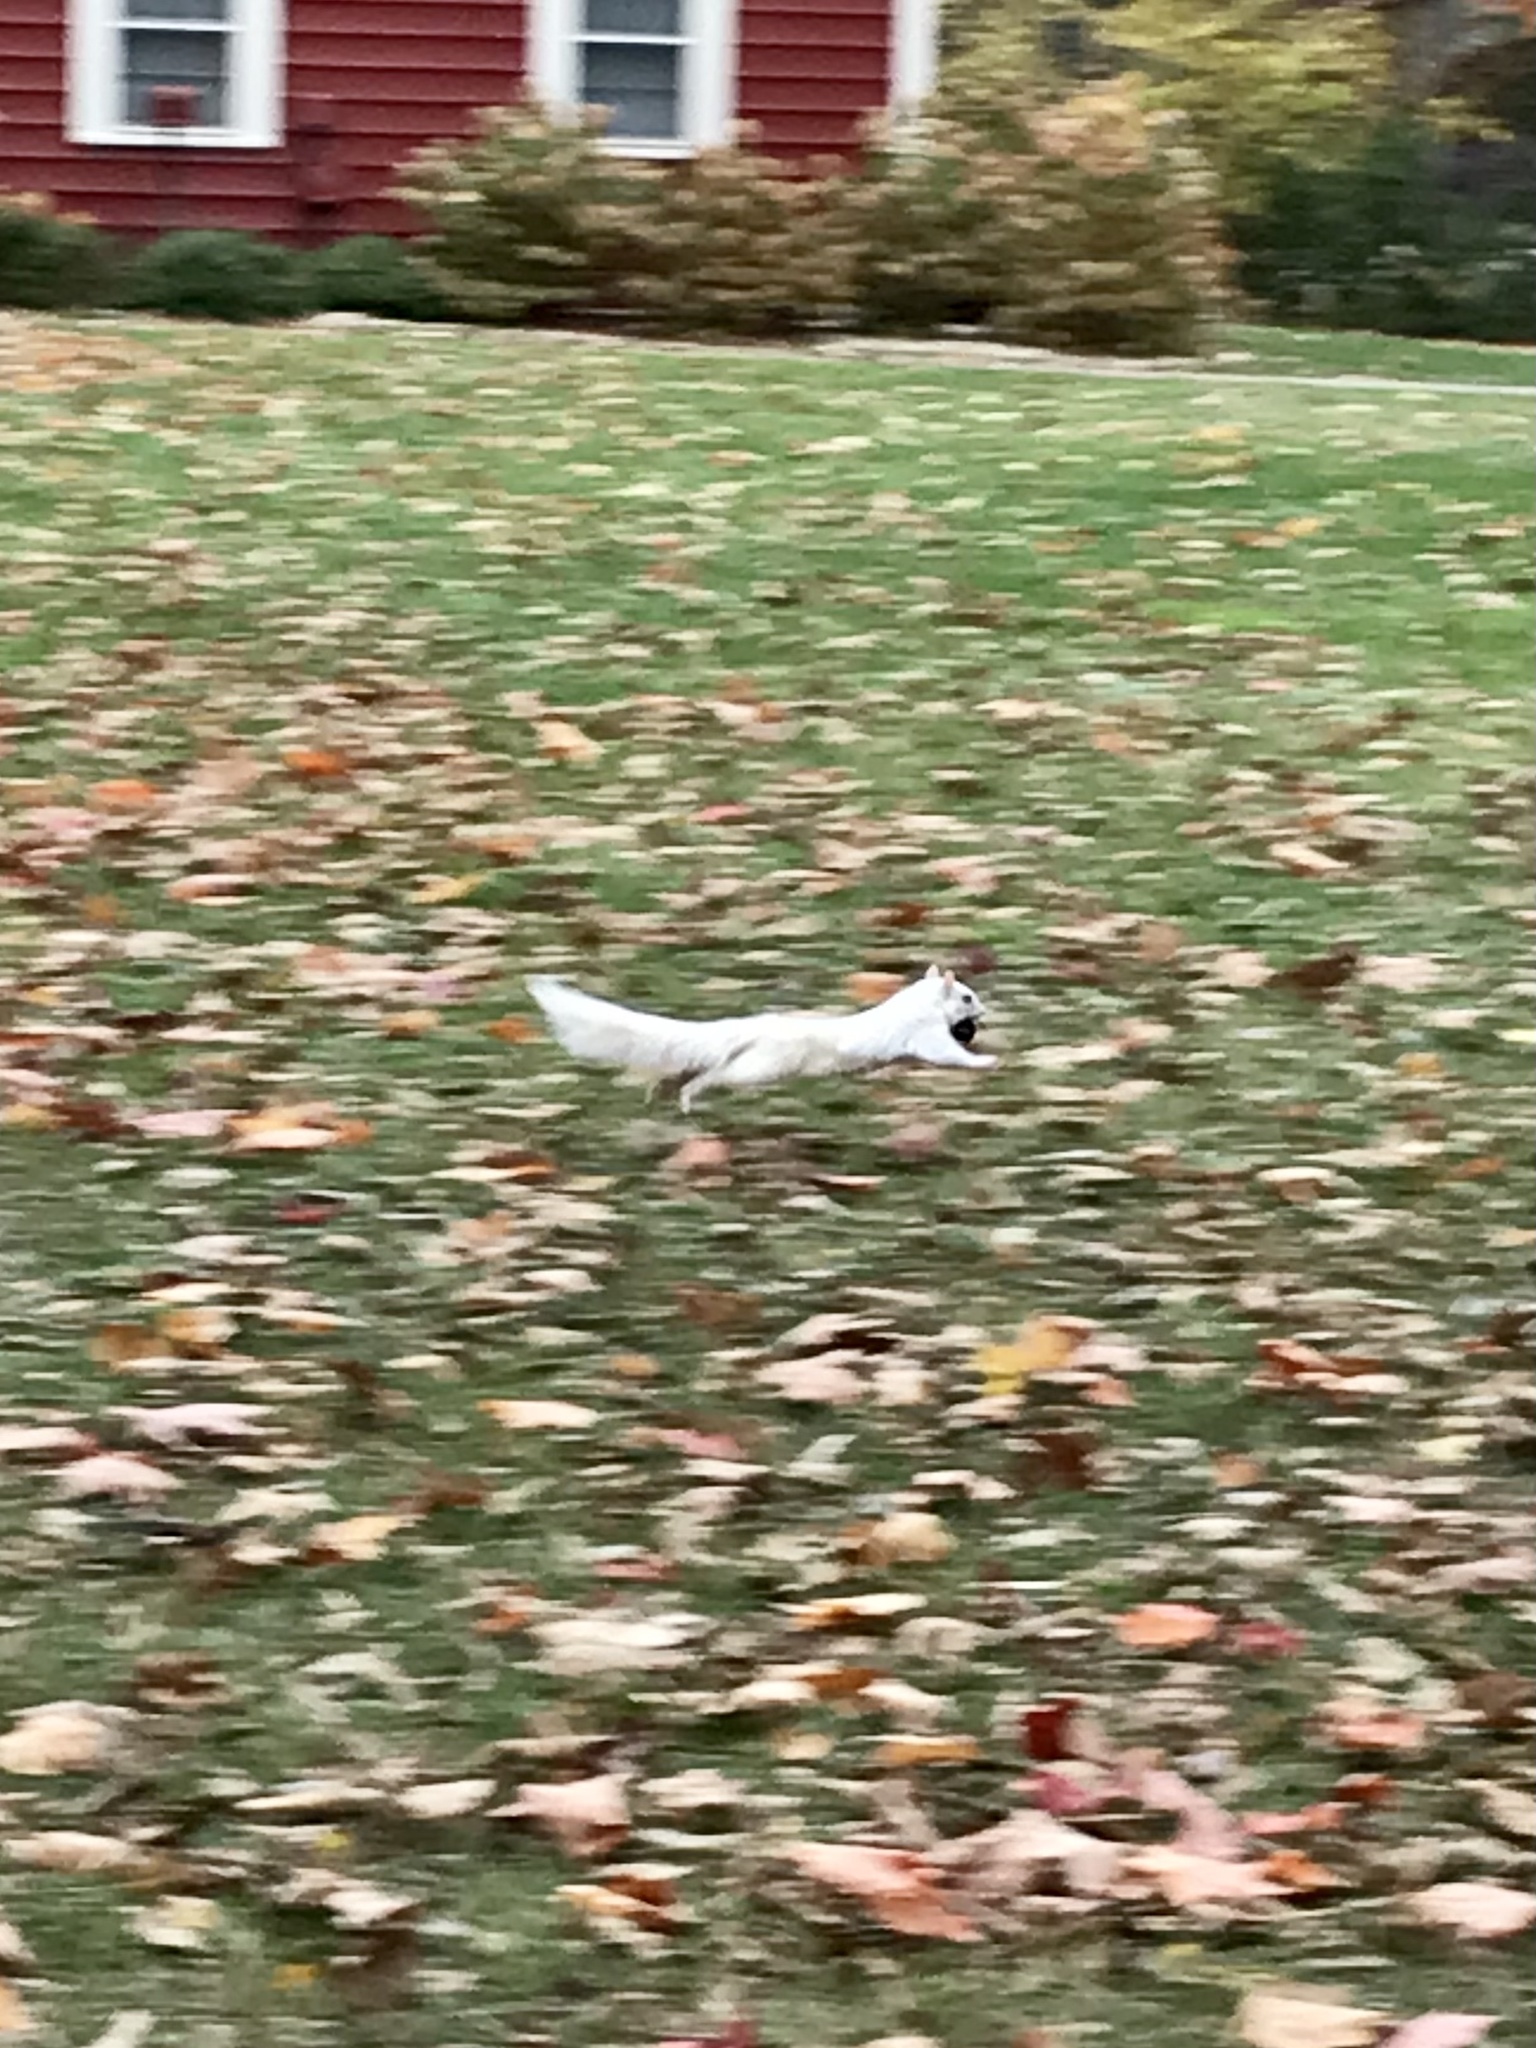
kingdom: Animalia
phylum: Chordata
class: Mammalia
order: Rodentia
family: Sciuridae
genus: Sciurus
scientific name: Sciurus carolinensis
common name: Eastern gray squirrel
